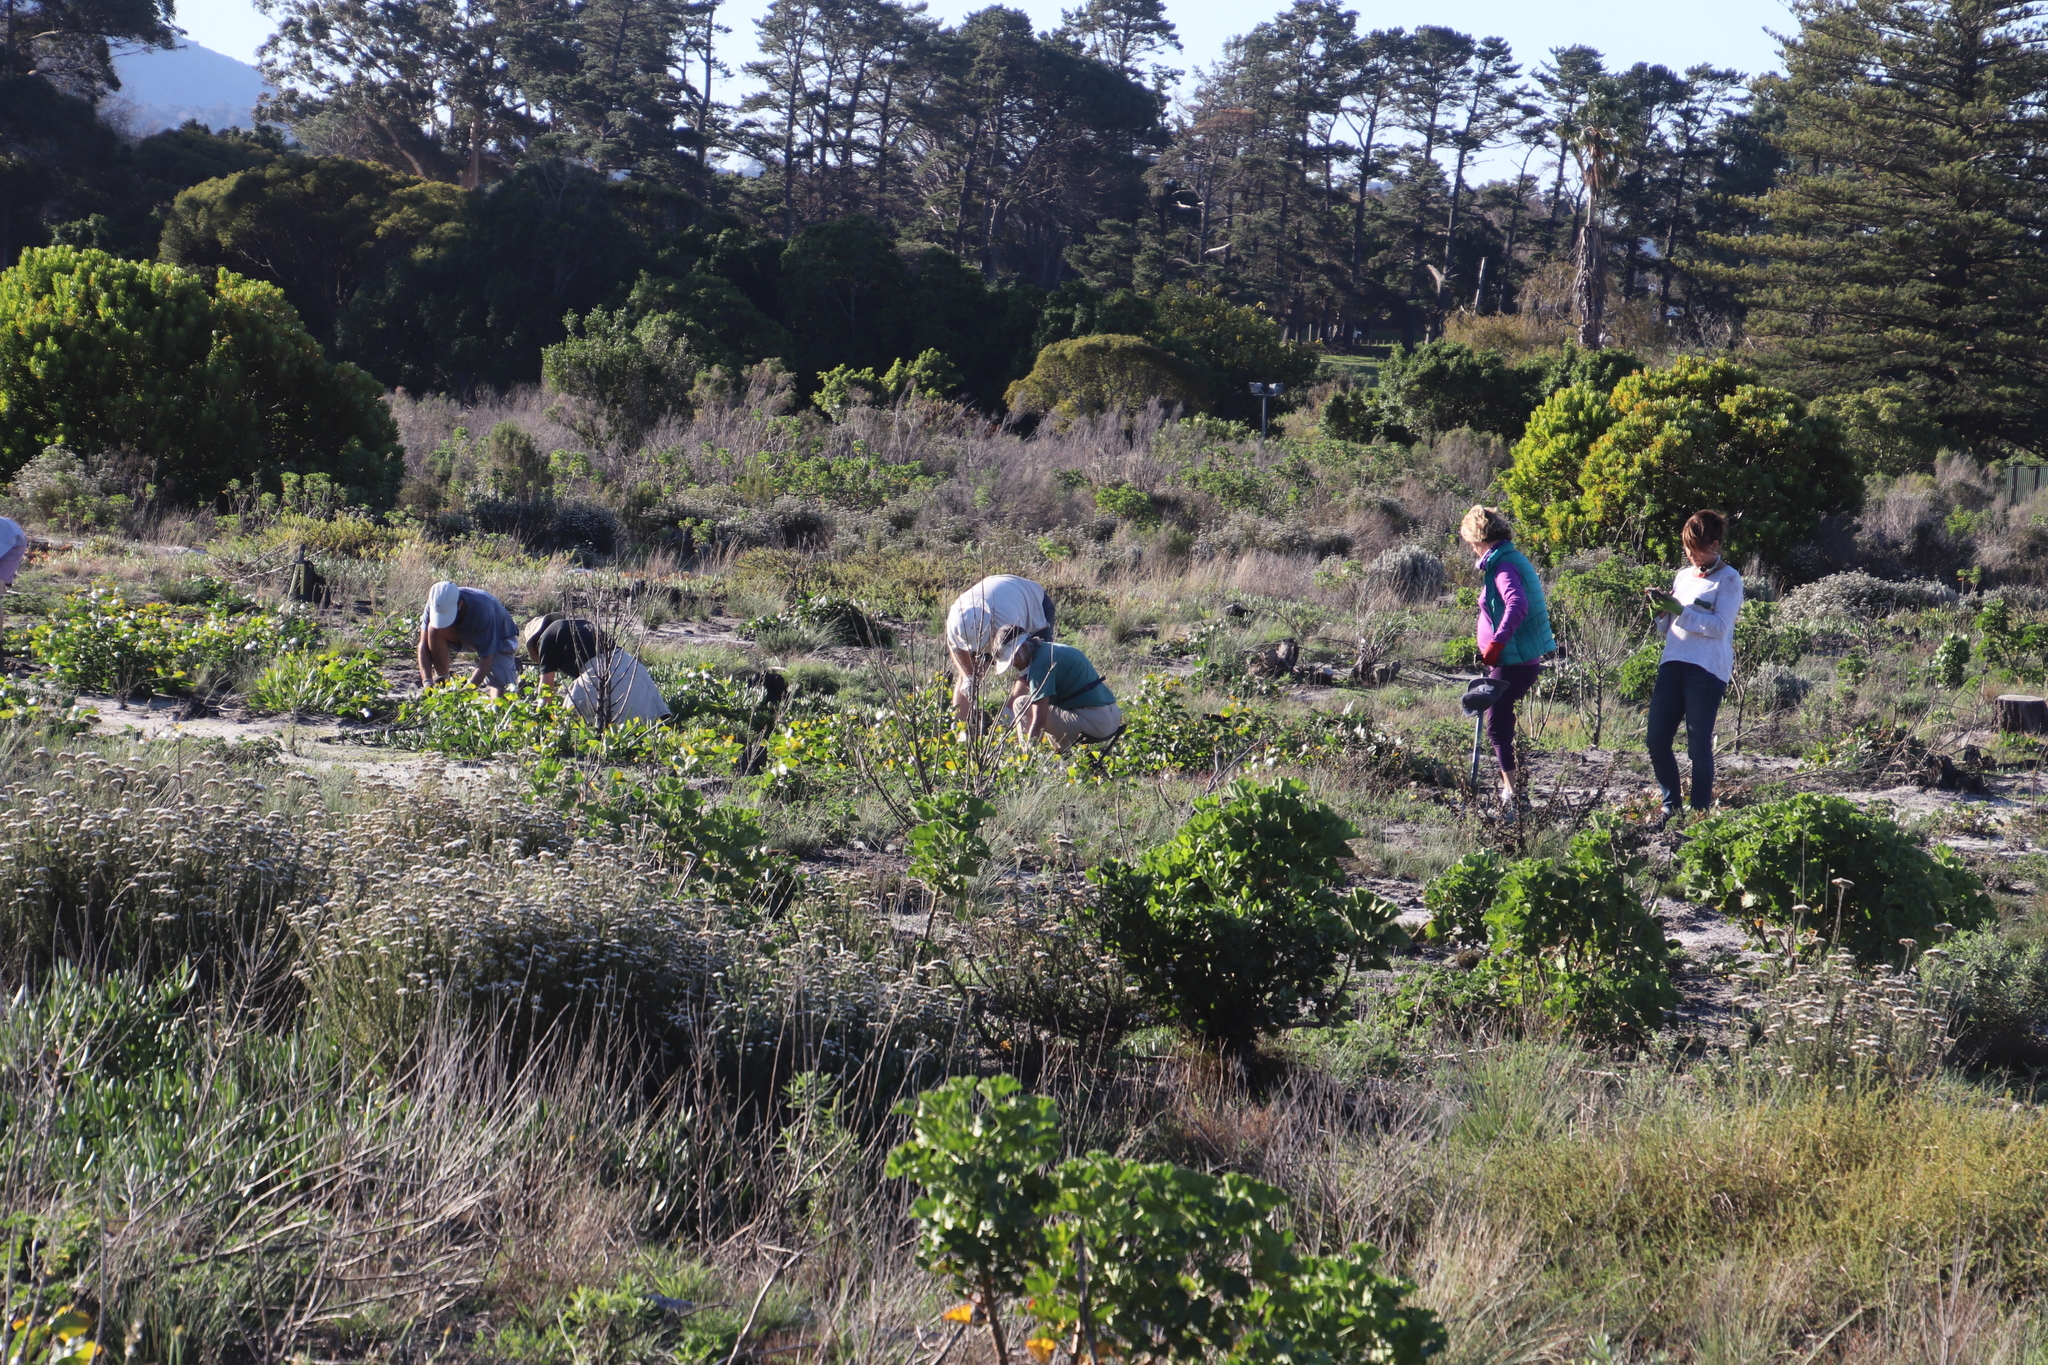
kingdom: Plantae
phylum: Tracheophyta
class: Magnoliopsida
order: Geraniales
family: Geraniaceae
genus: Pelargonium
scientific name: Pelargonium cucullatum
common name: Tree pelargonium
